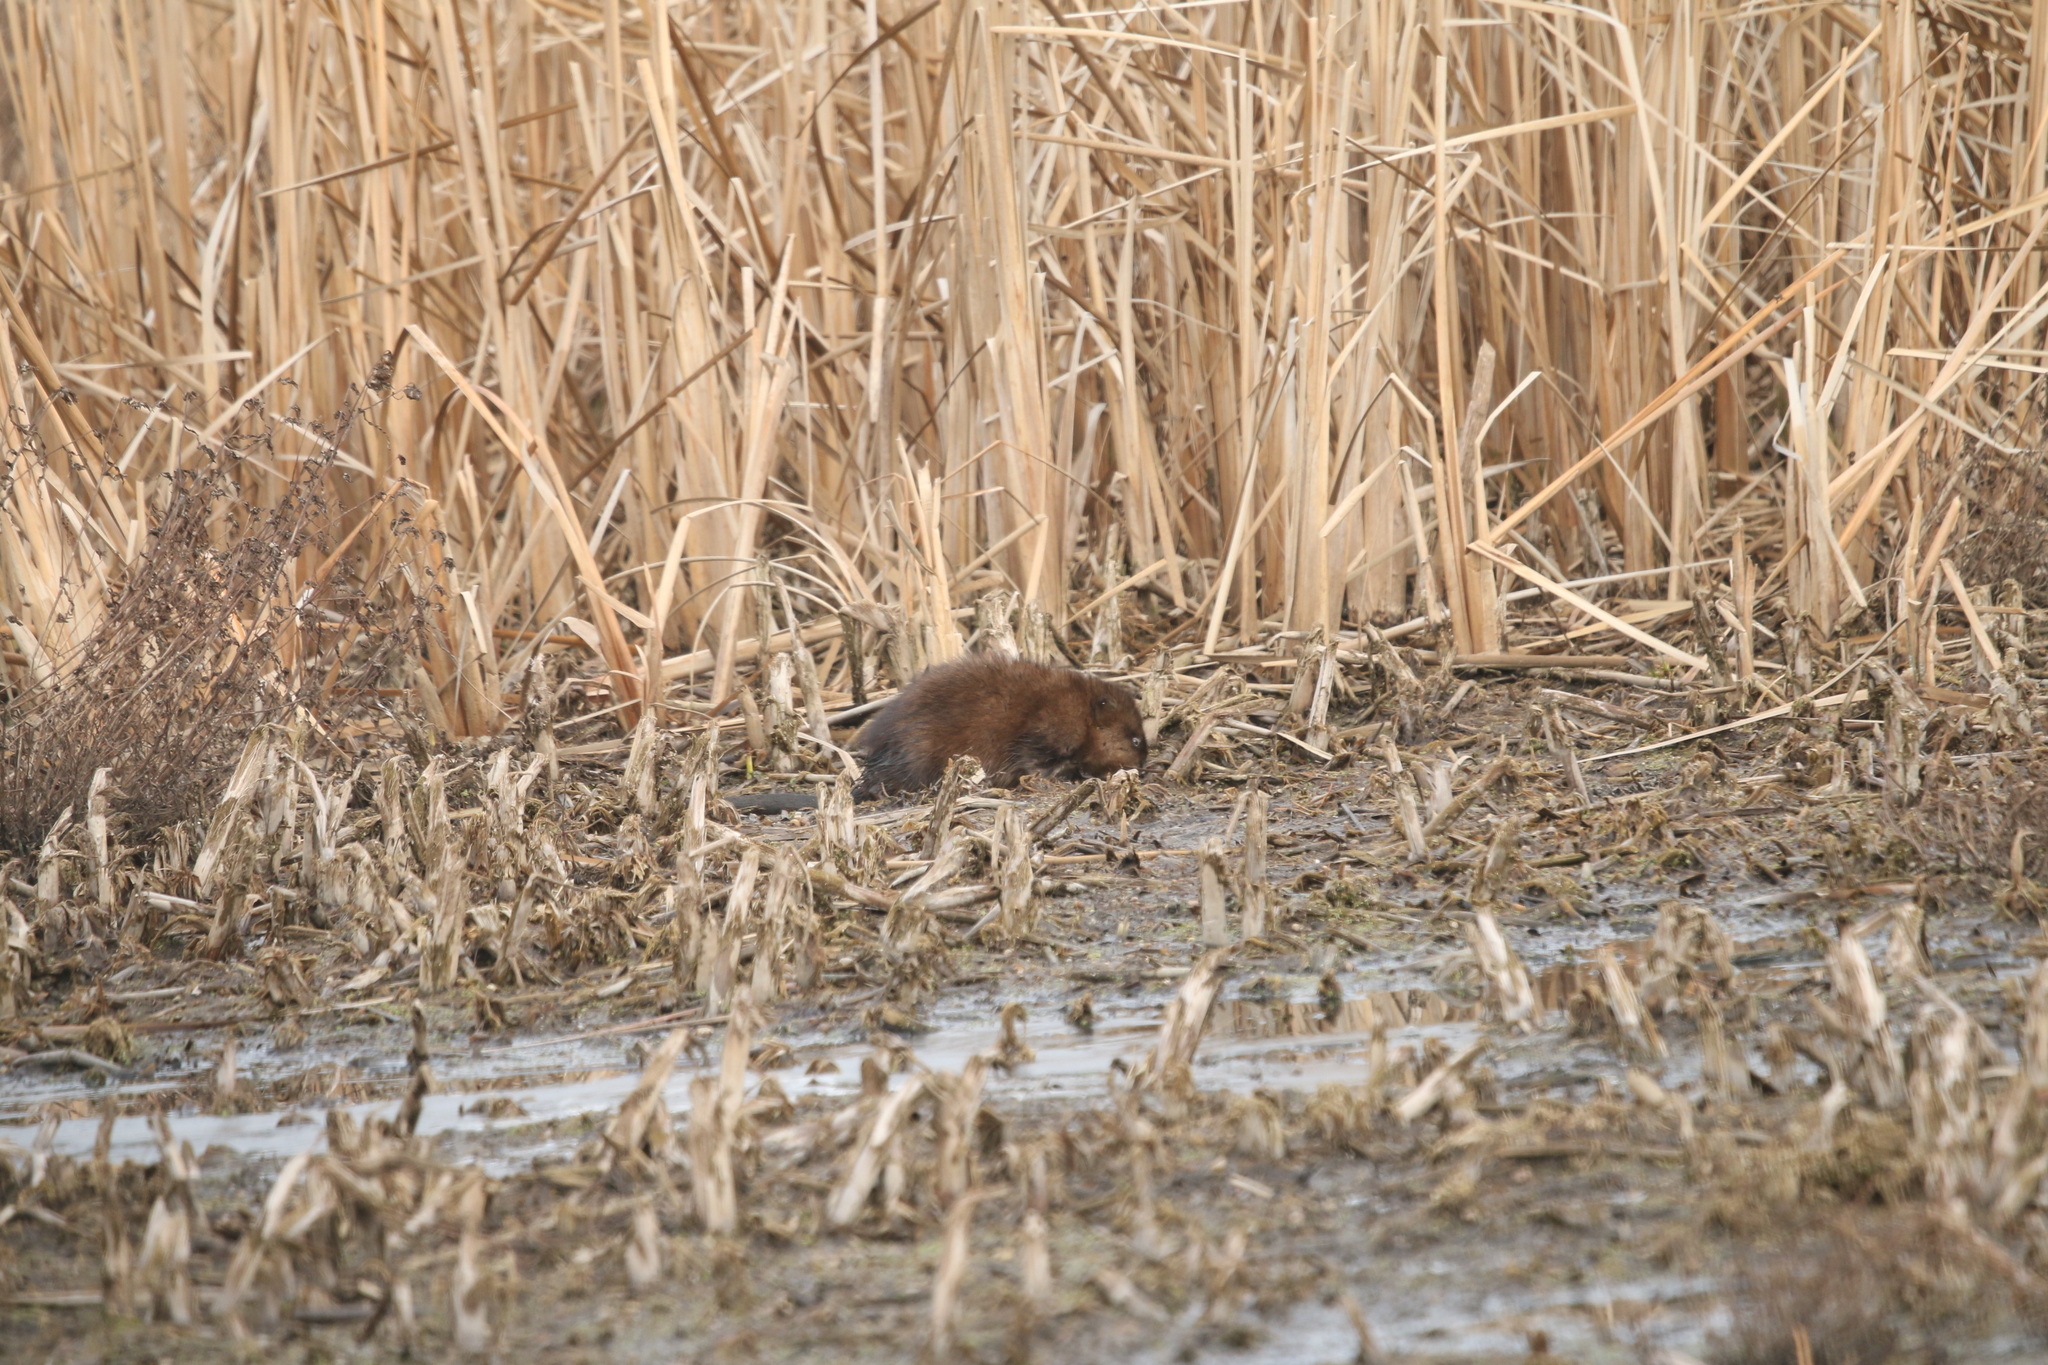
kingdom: Animalia
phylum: Chordata
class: Mammalia
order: Rodentia
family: Cricetidae
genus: Ondatra
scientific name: Ondatra zibethicus
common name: Muskrat
